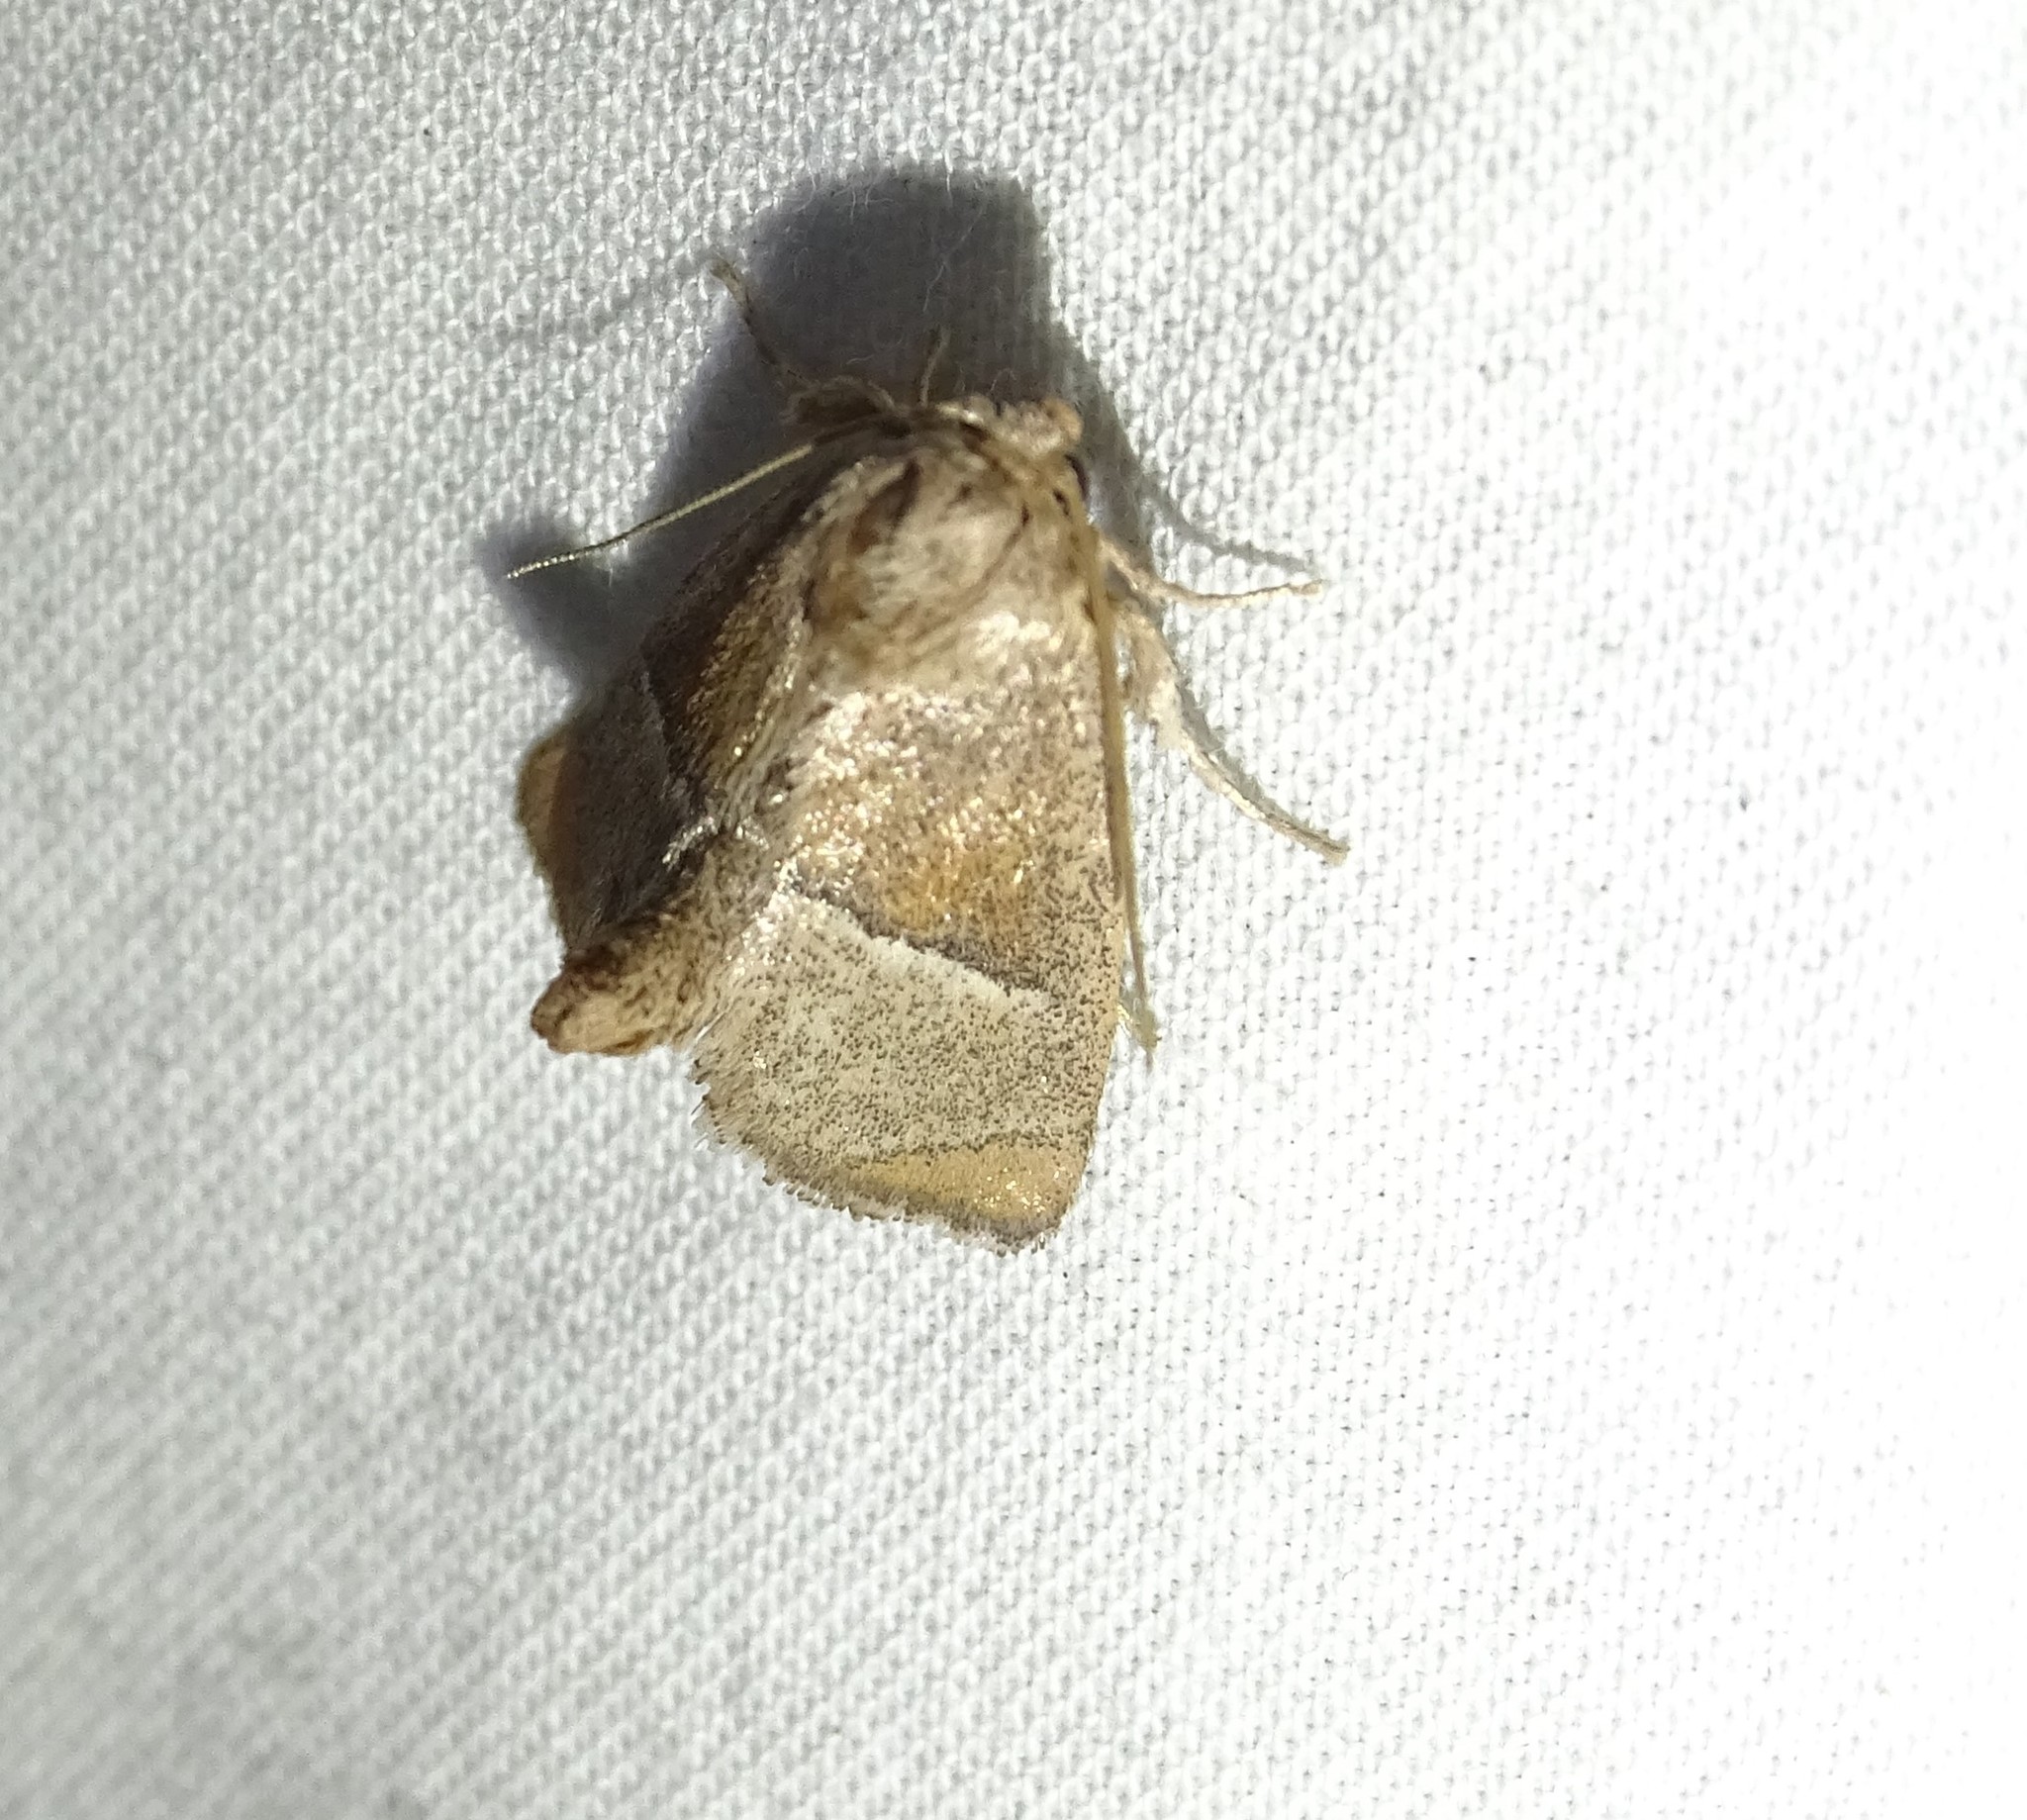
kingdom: Animalia
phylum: Arthropoda
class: Insecta
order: Lepidoptera
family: Limacodidae
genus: Apoda
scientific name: Apoda rectilinea
